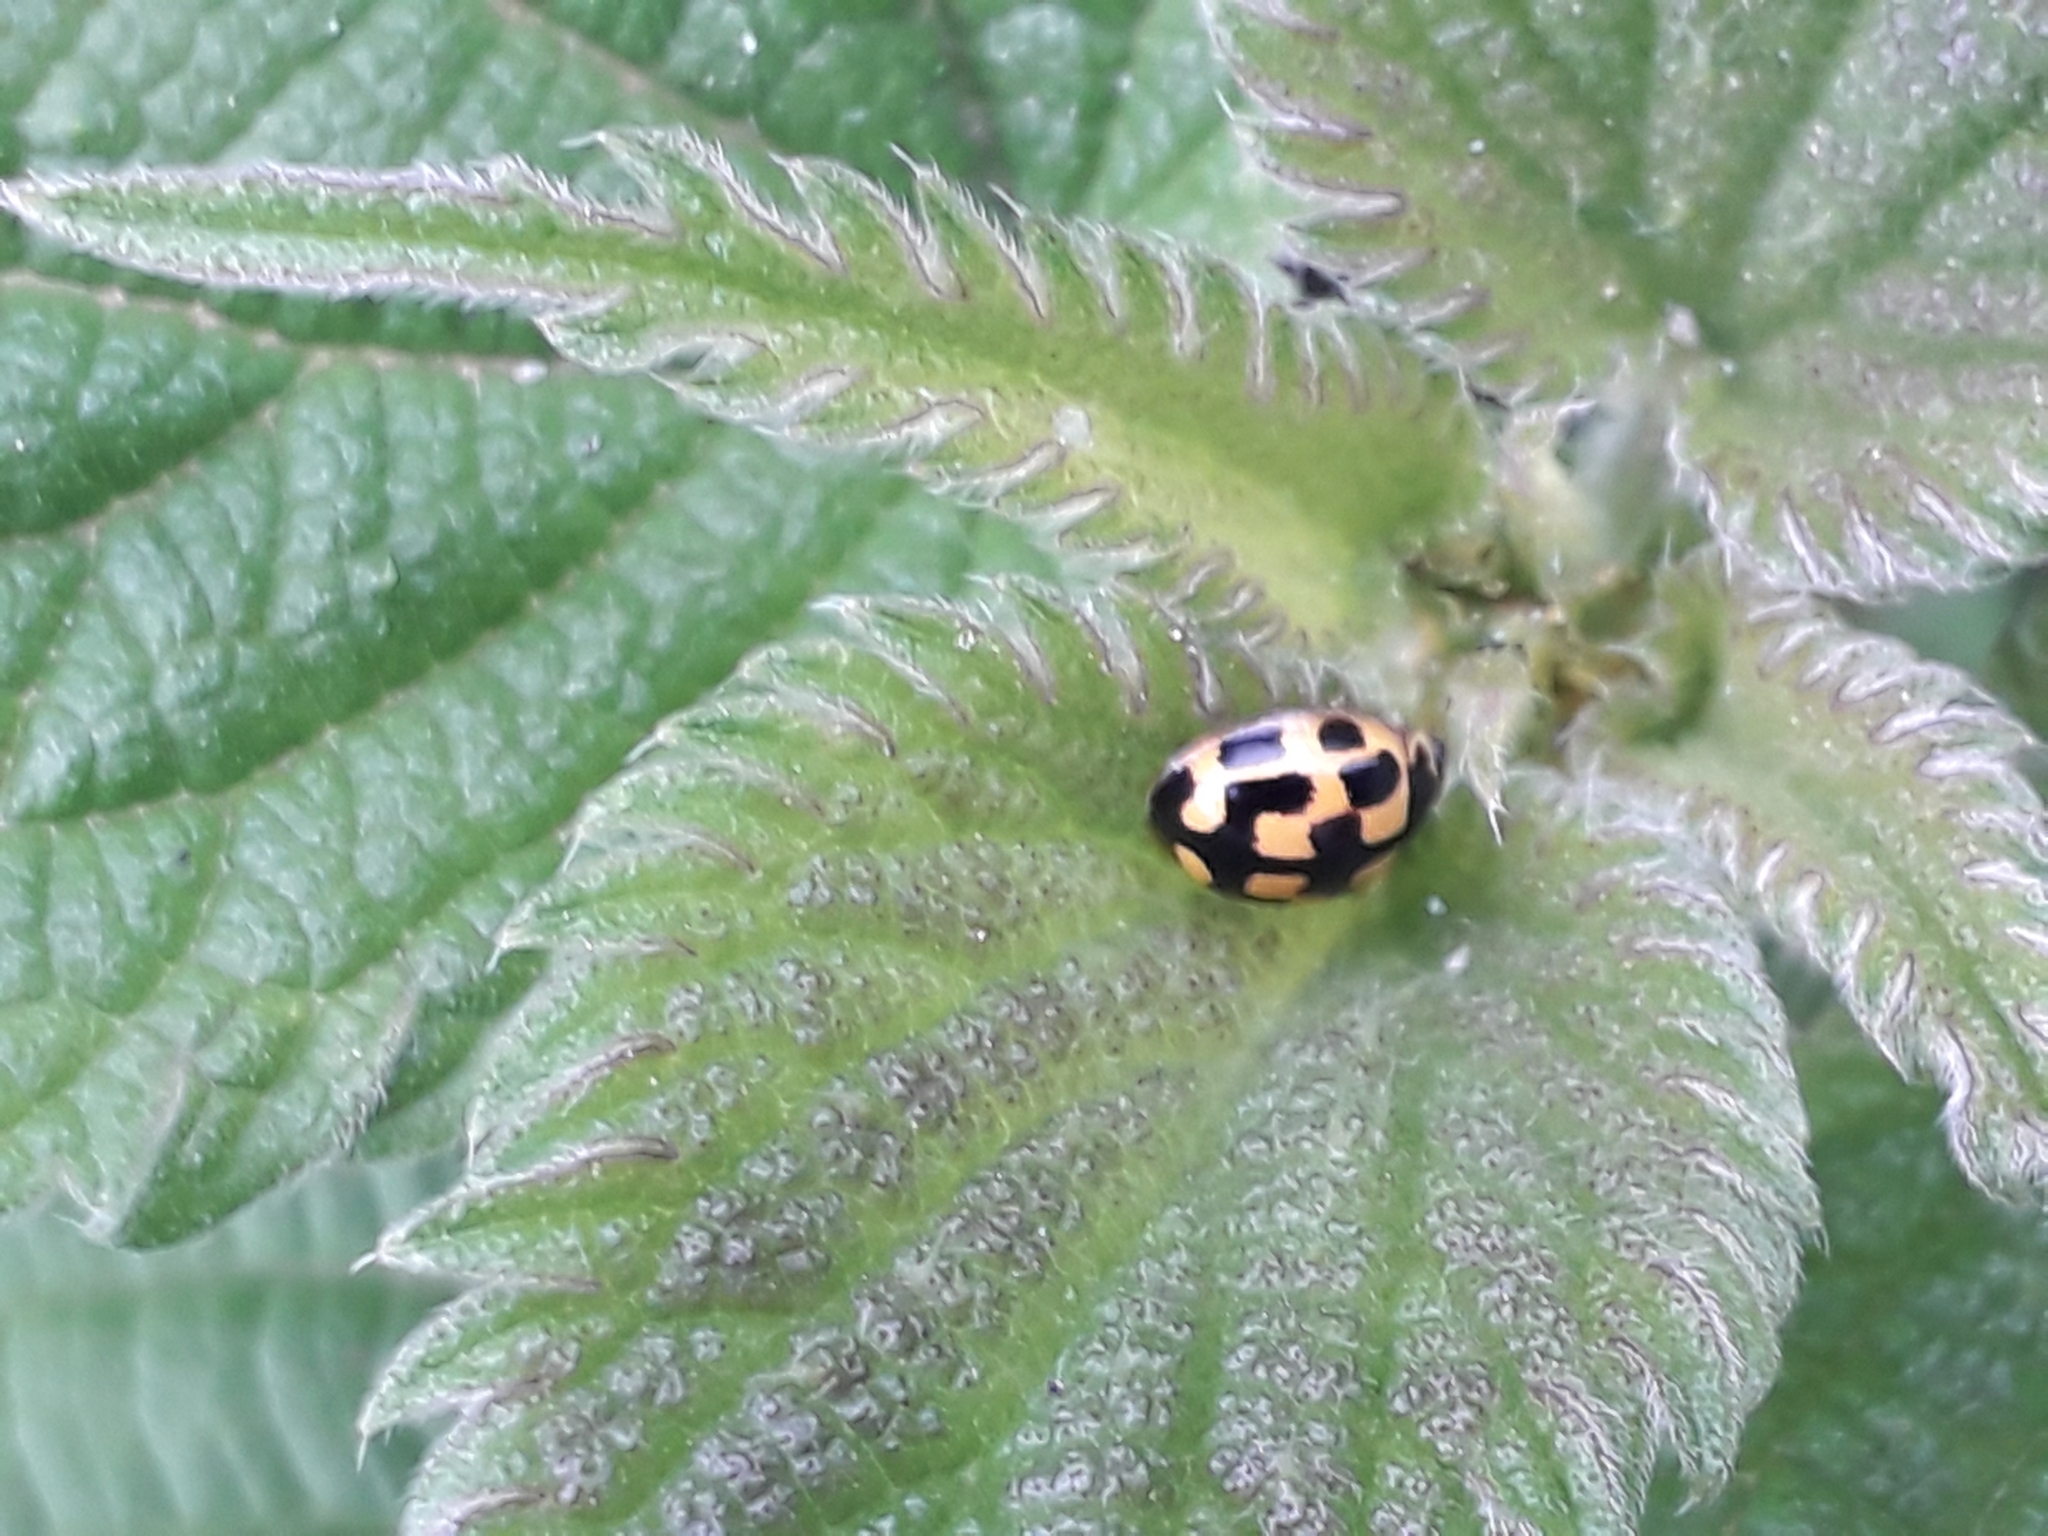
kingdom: Animalia
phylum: Arthropoda
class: Insecta
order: Coleoptera
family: Coccinellidae
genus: Propylaea
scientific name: Propylaea quatuordecimpunctata
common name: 14-spotted ladybird beetle
